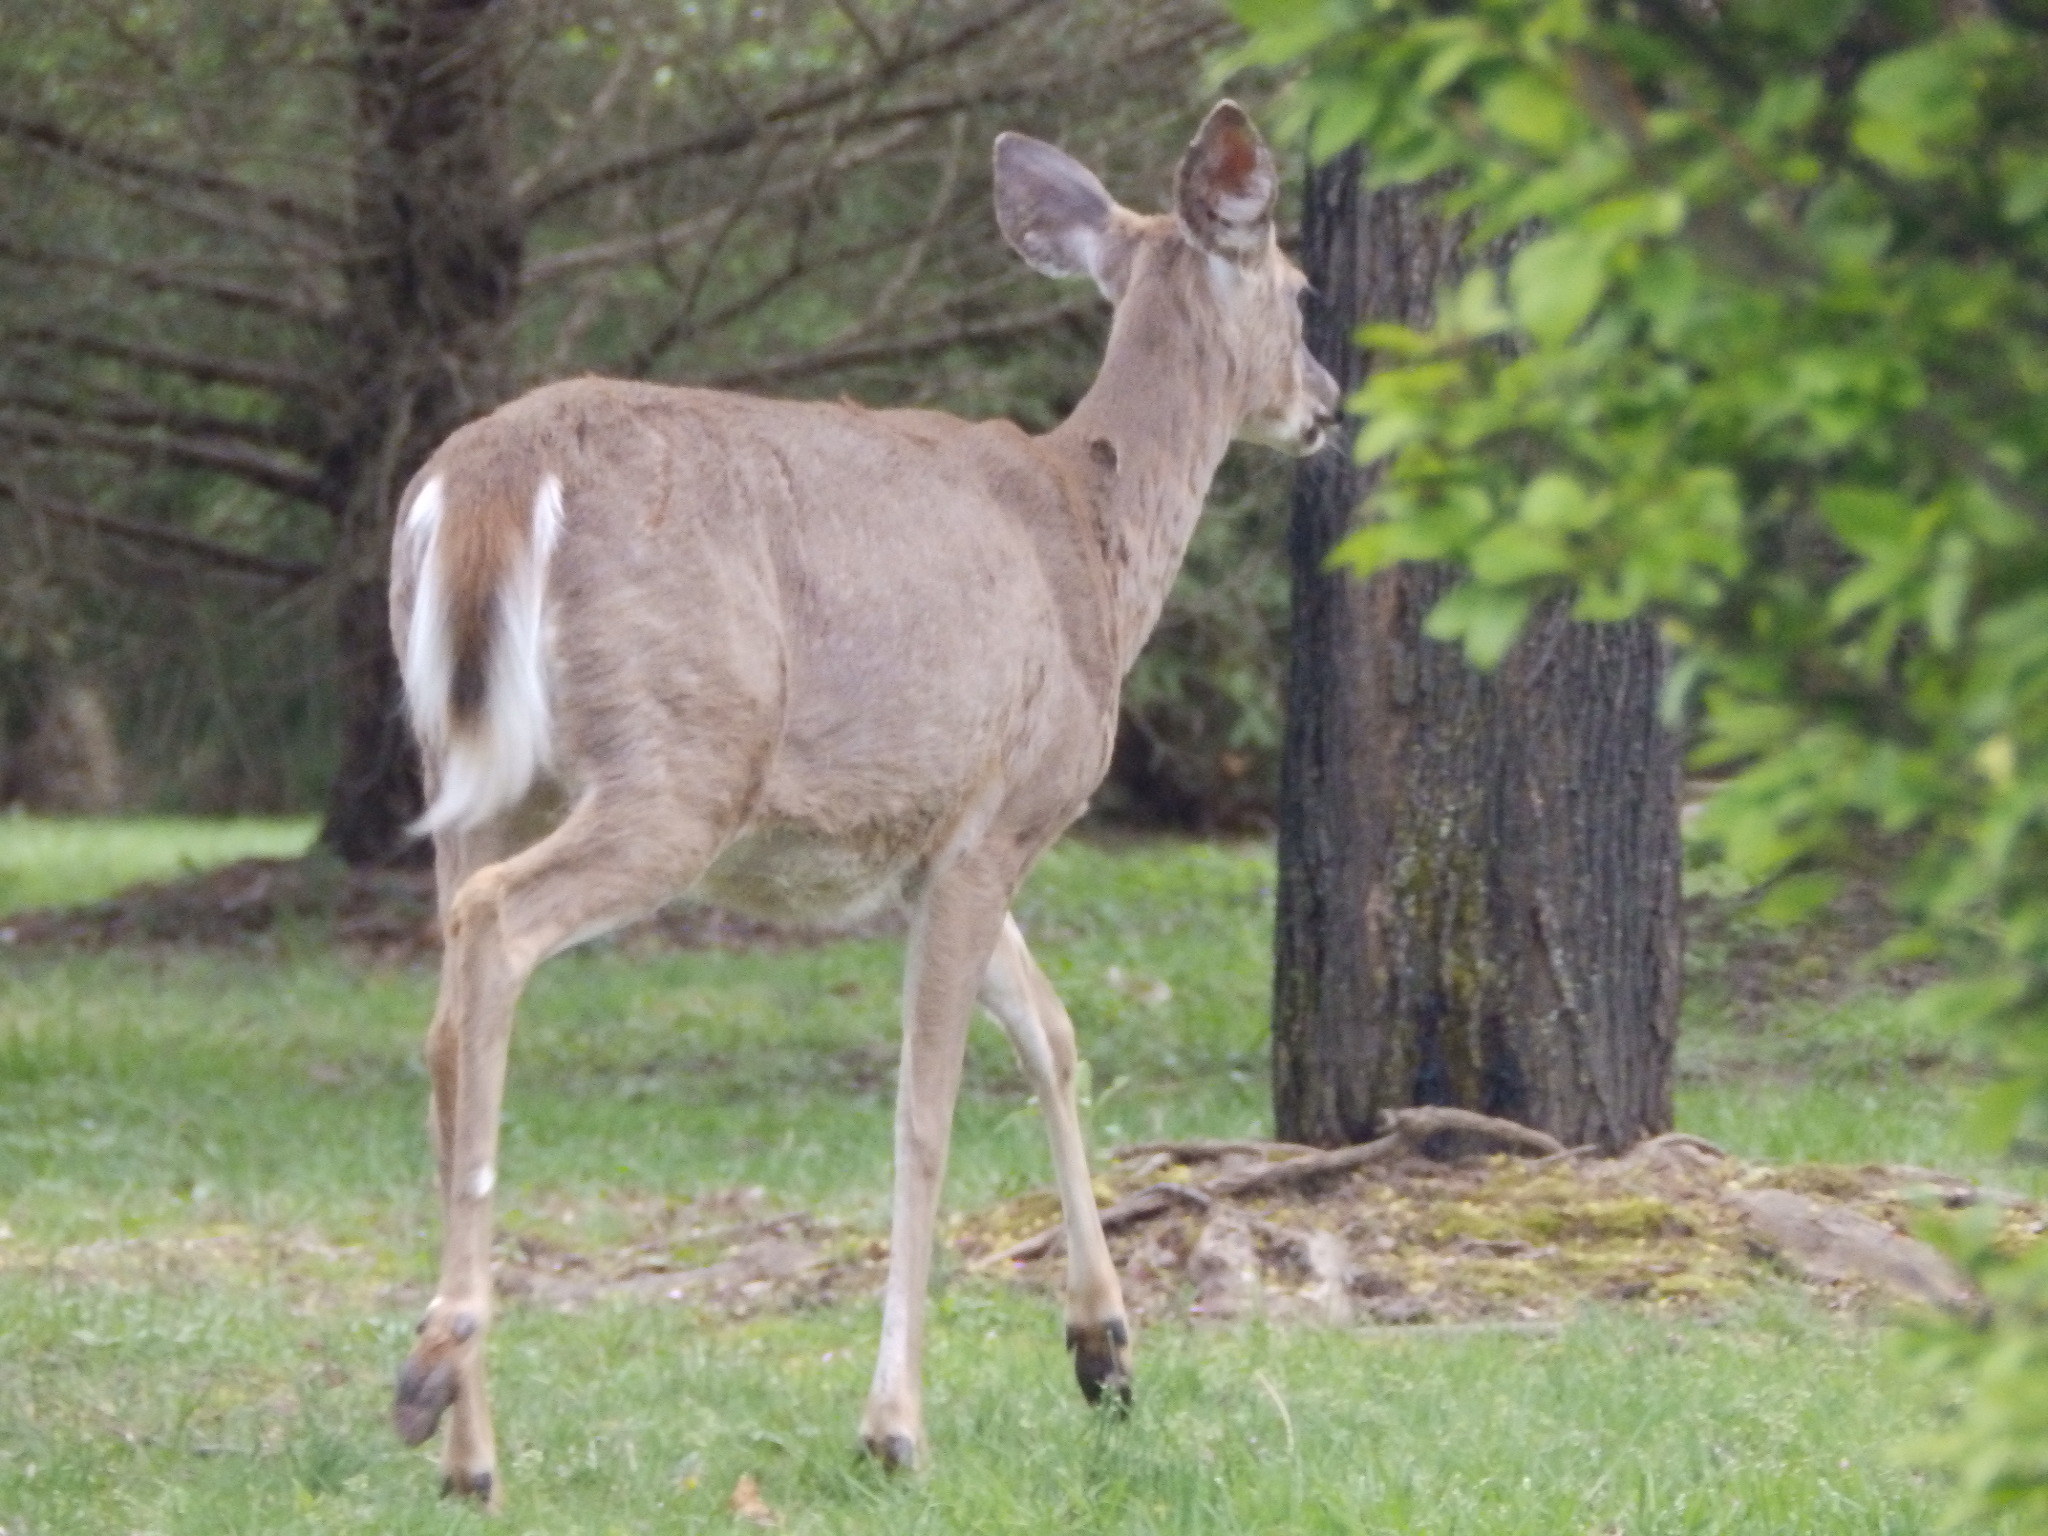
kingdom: Animalia
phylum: Chordata
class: Mammalia
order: Artiodactyla
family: Cervidae
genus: Odocoileus
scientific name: Odocoileus virginianus
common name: White-tailed deer
